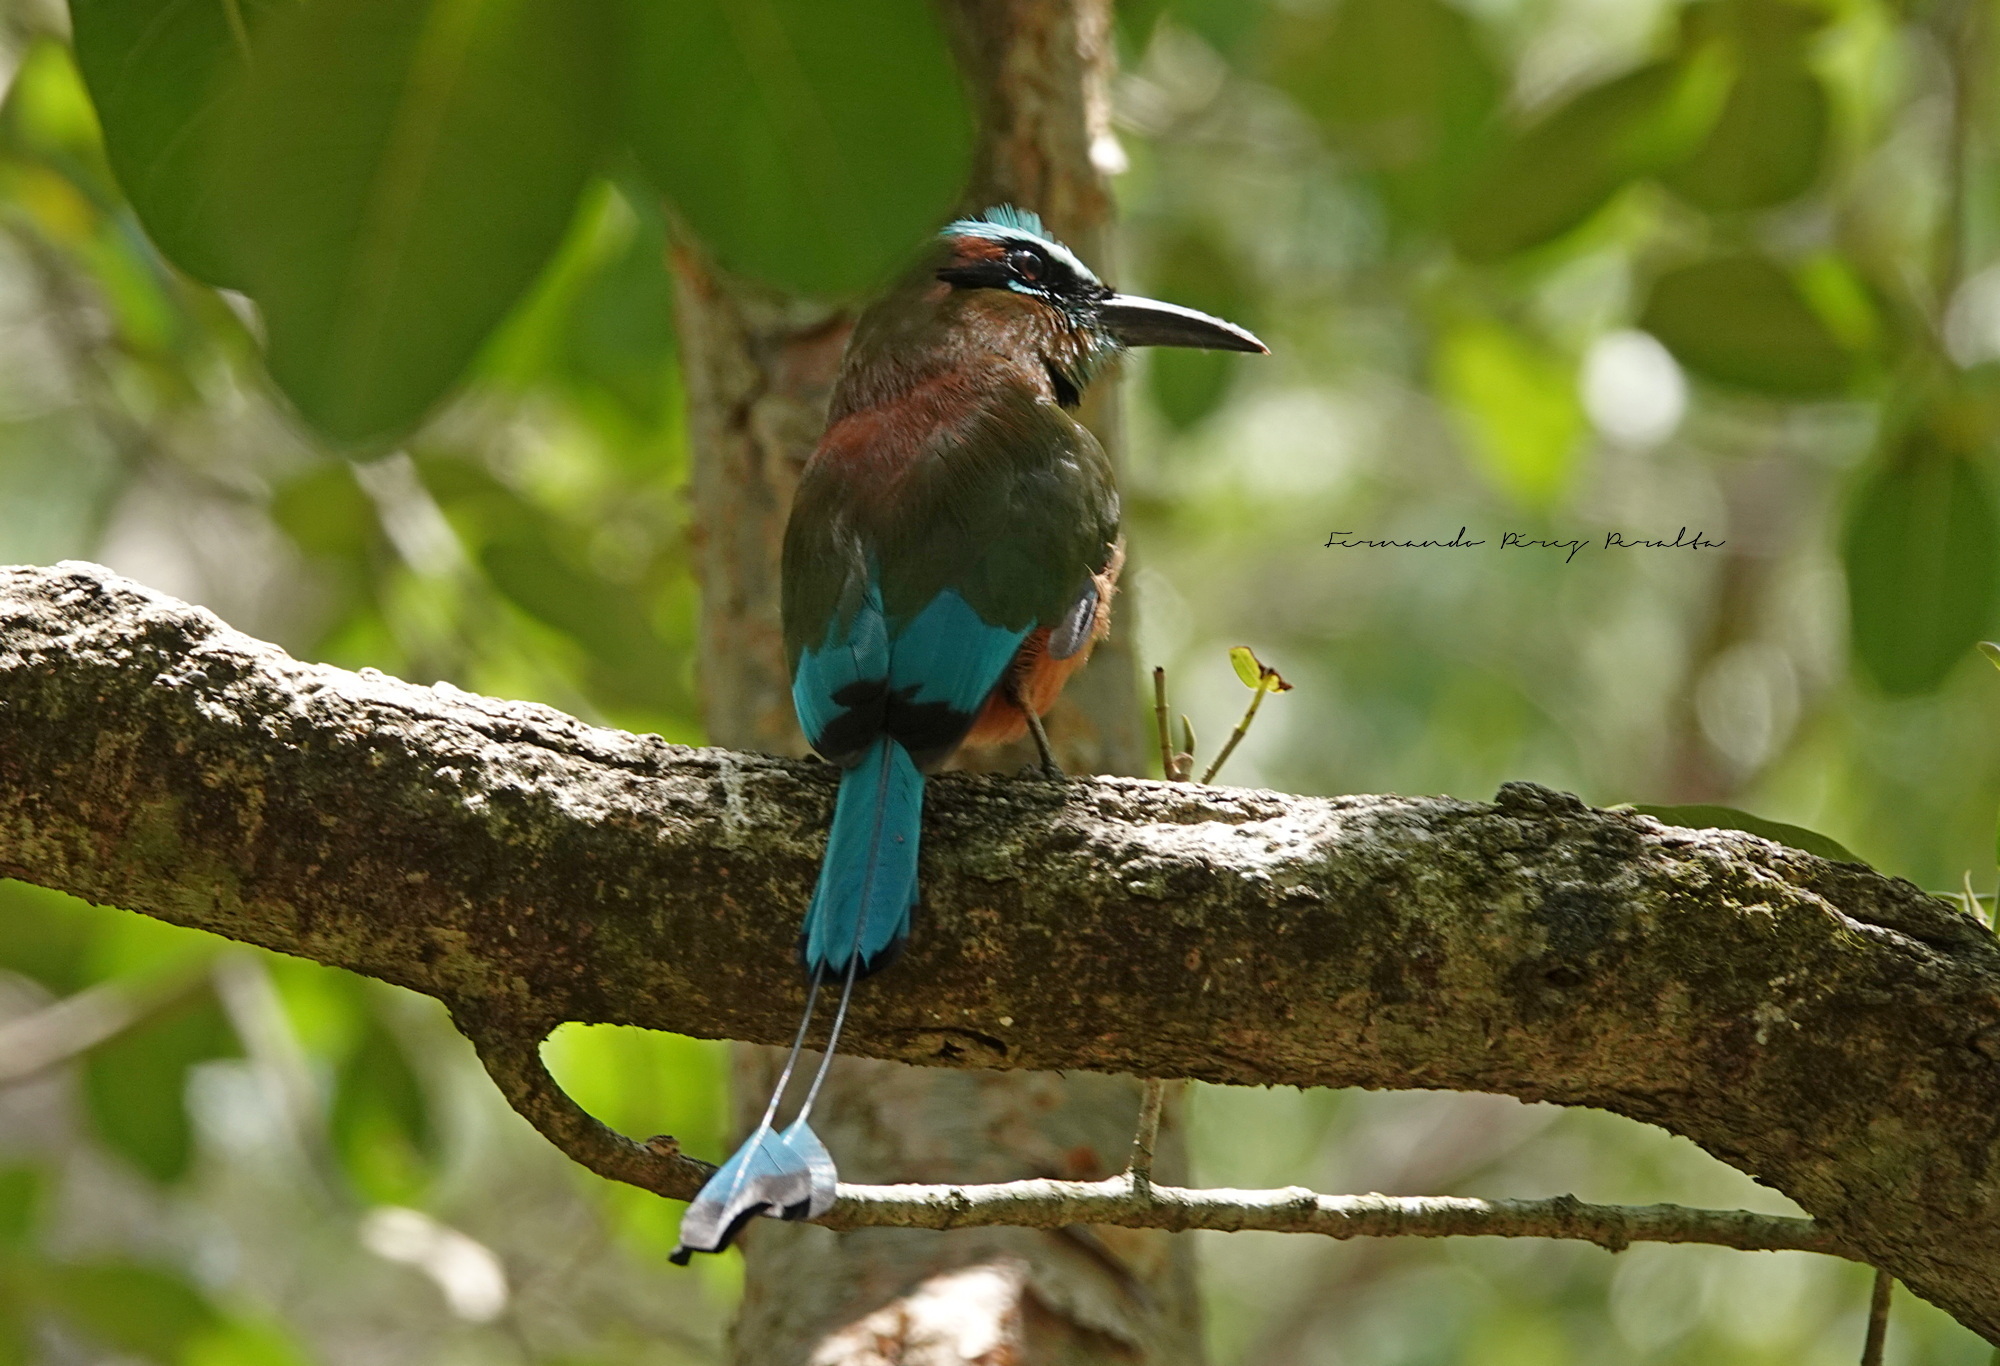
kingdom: Animalia
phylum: Chordata
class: Aves
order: Coraciiformes
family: Momotidae
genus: Eumomota
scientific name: Eumomota superciliosa
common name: Turquoise-browed motmot
